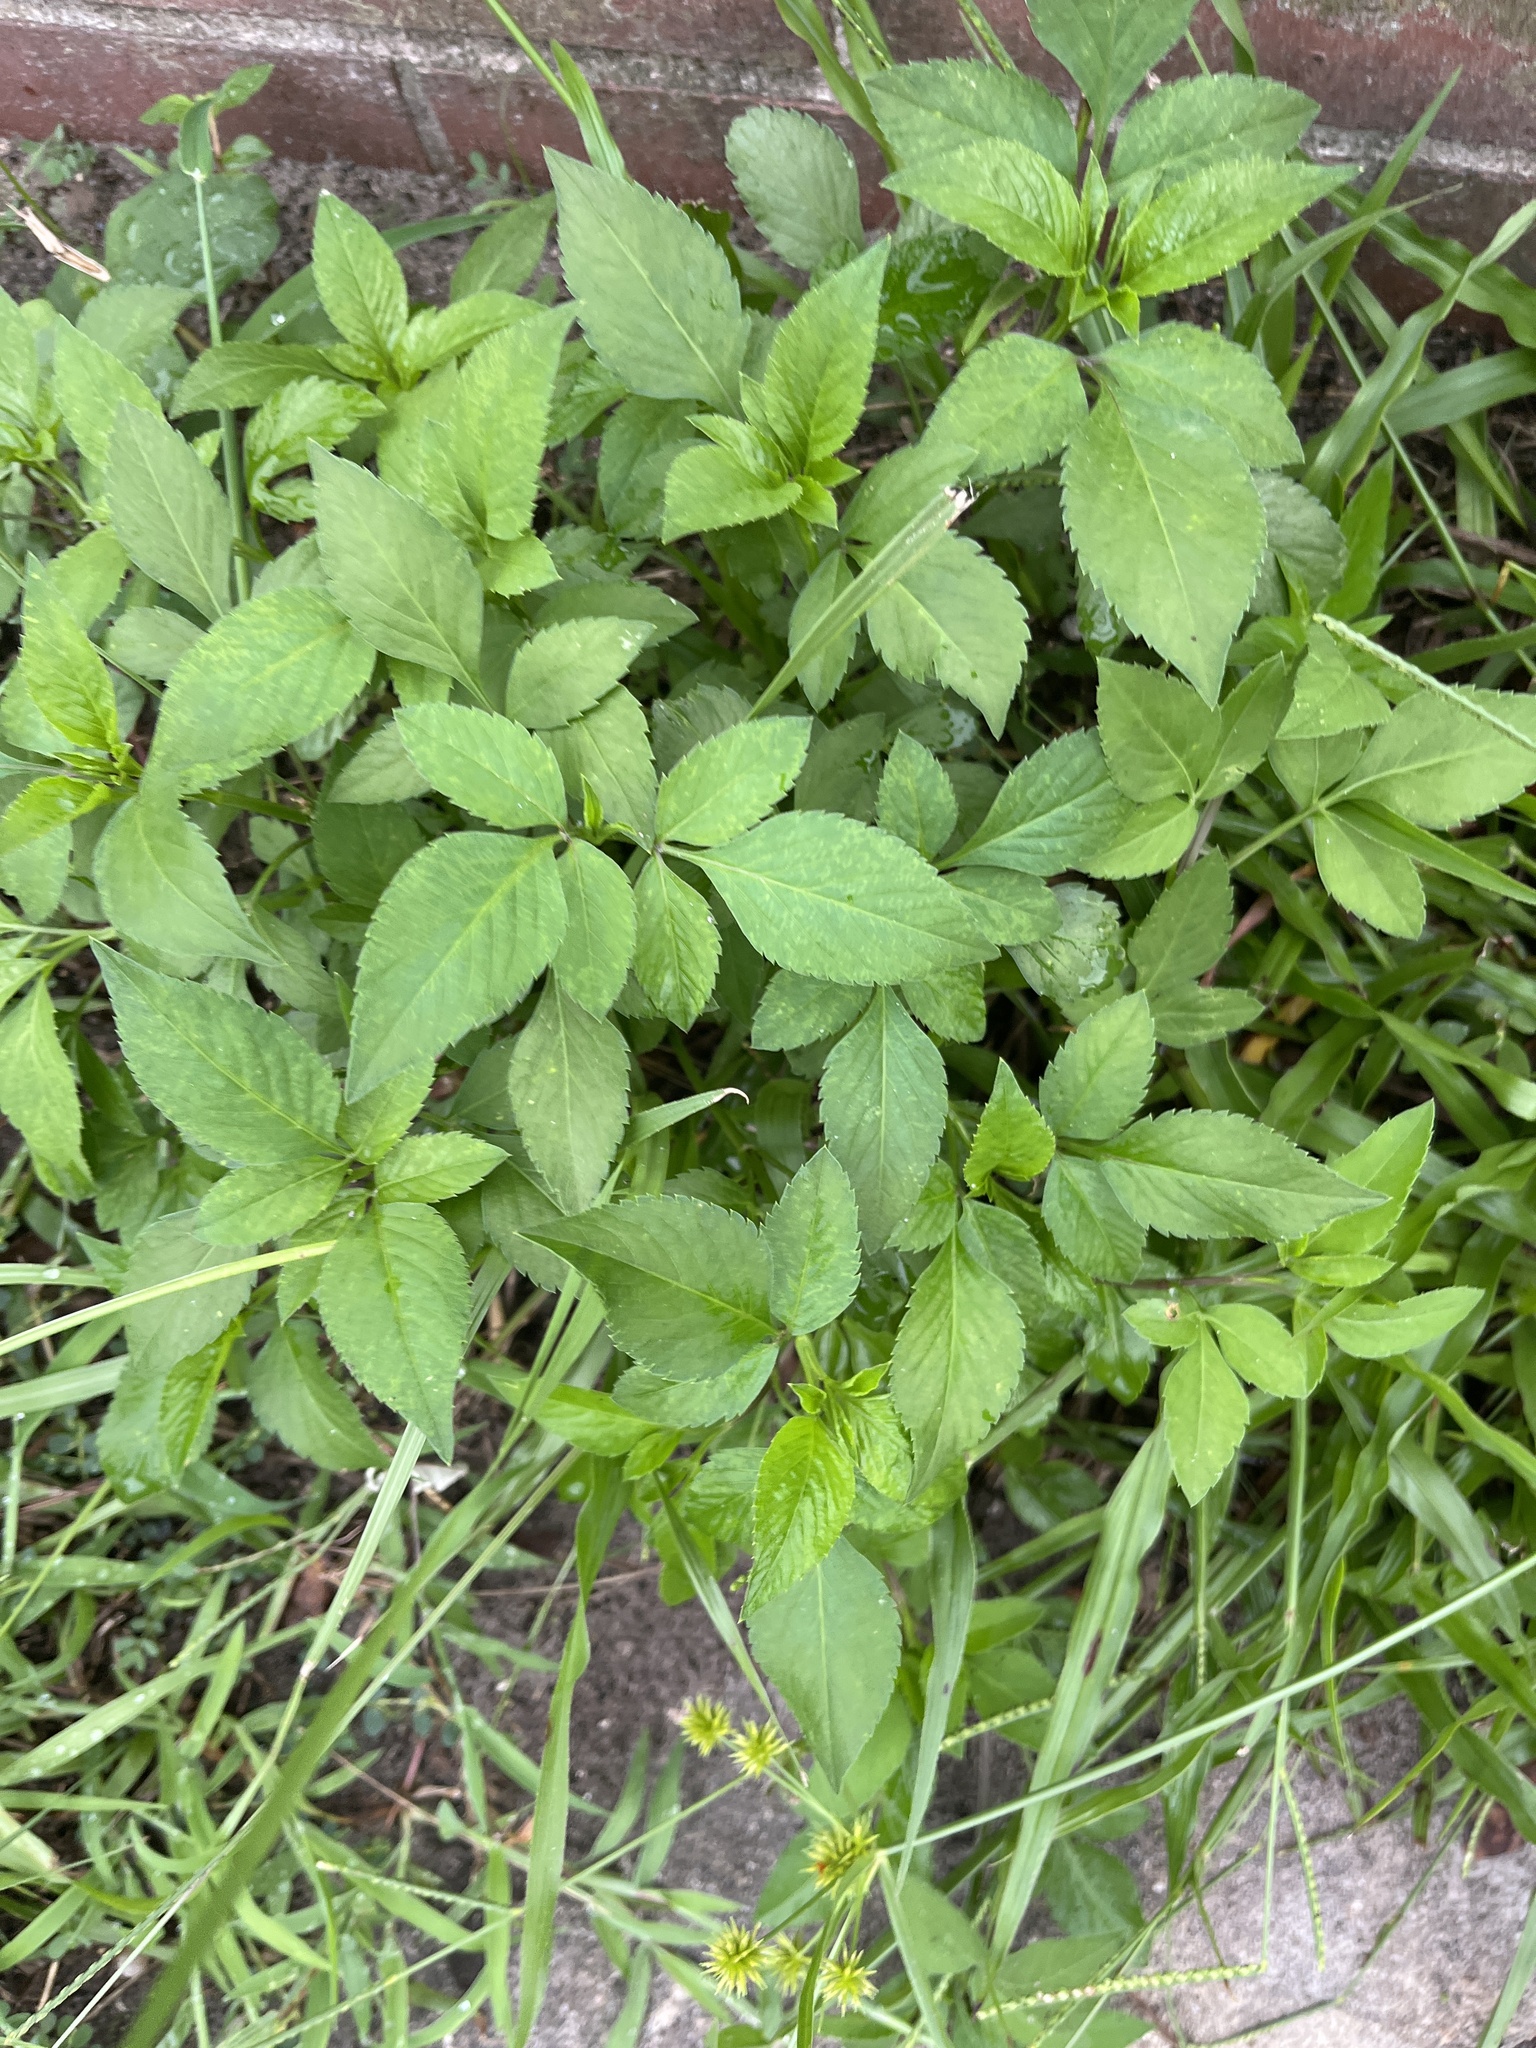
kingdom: Plantae
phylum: Tracheophyta
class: Magnoliopsida
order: Asterales
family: Asteraceae
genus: Bidens
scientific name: Bidens alba
